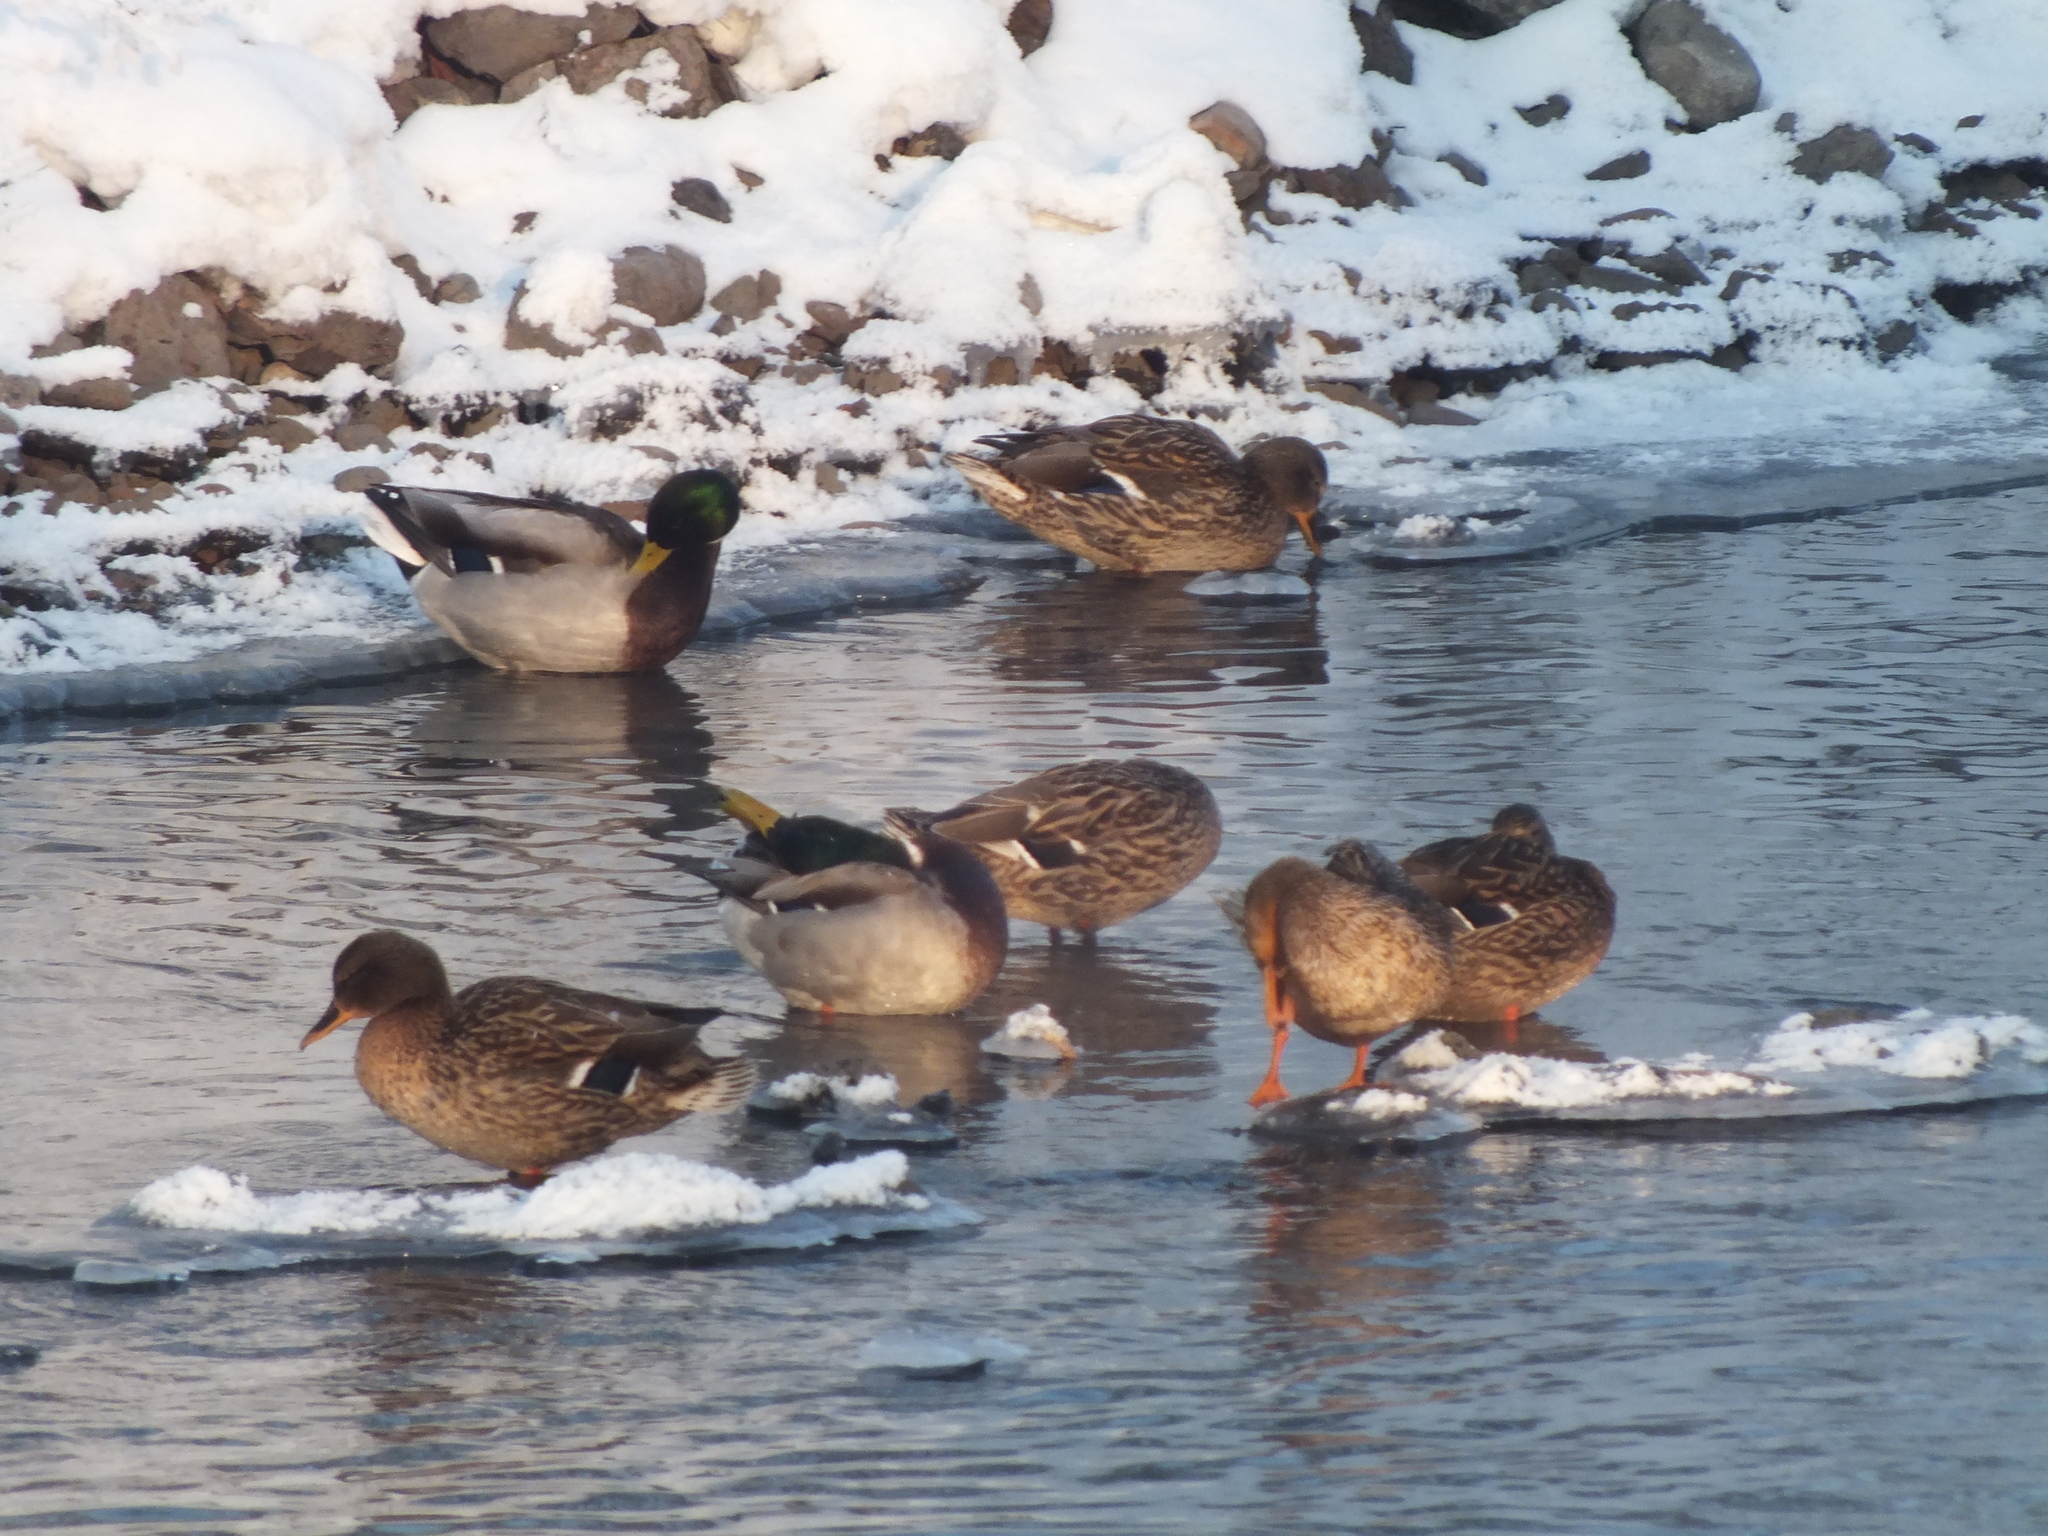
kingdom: Animalia
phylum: Chordata
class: Aves
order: Anseriformes
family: Anatidae
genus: Anas
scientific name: Anas platyrhynchos
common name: Mallard
